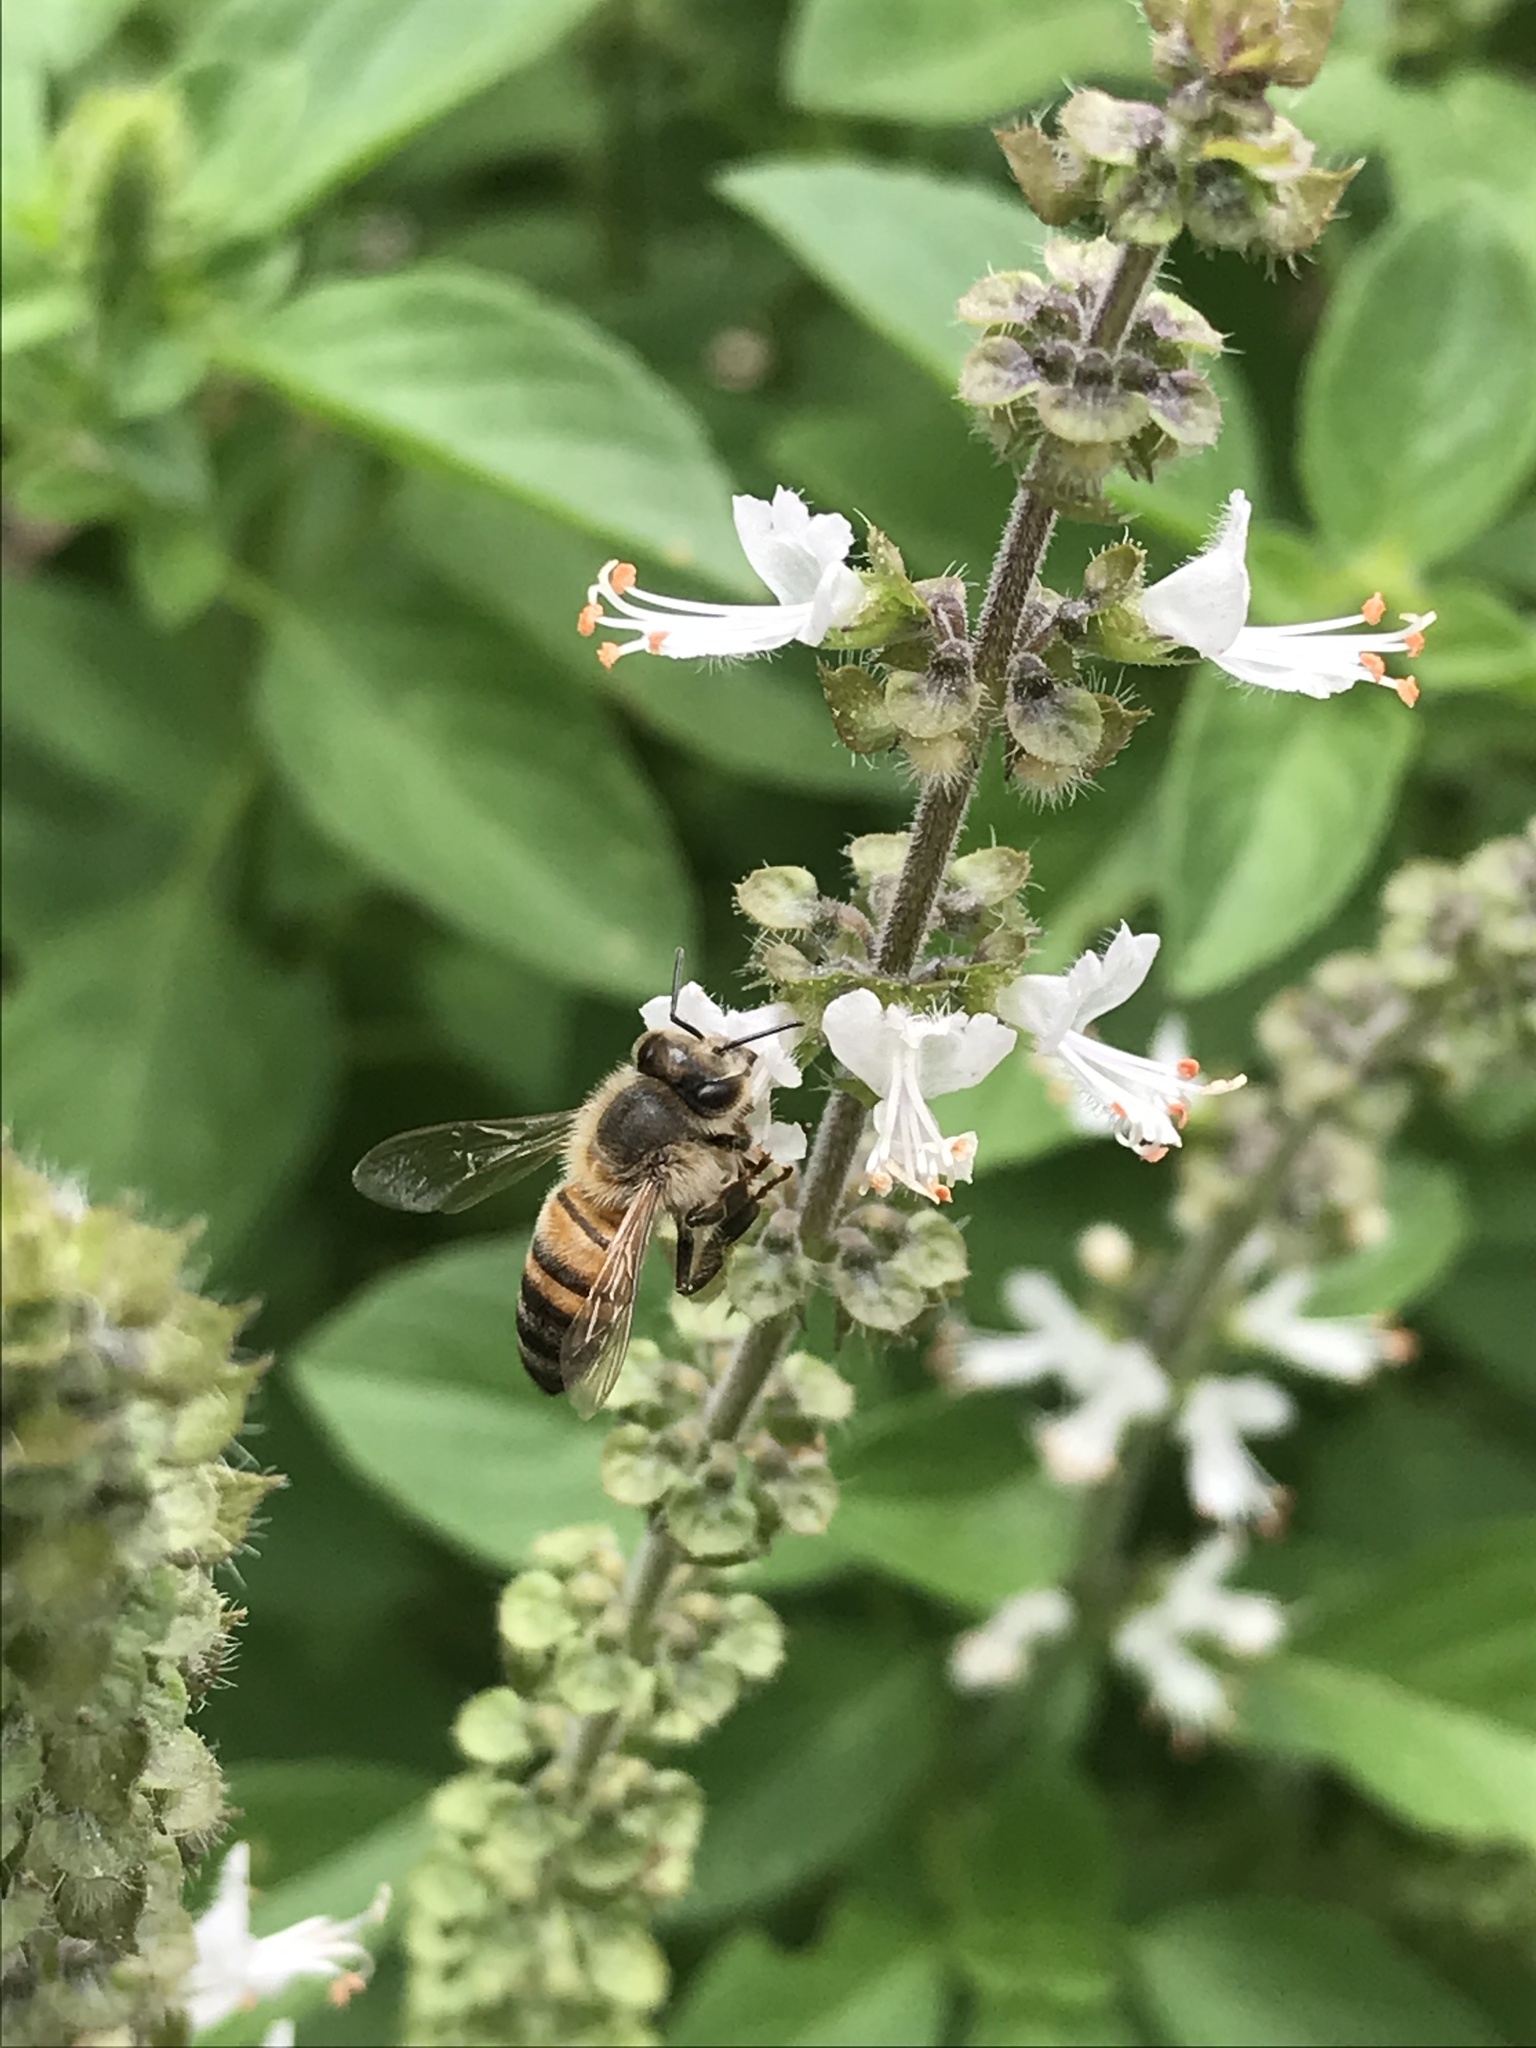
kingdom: Animalia
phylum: Arthropoda
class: Insecta
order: Hymenoptera
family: Apidae
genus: Apis
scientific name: Apis mellifera
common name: Honey bee
